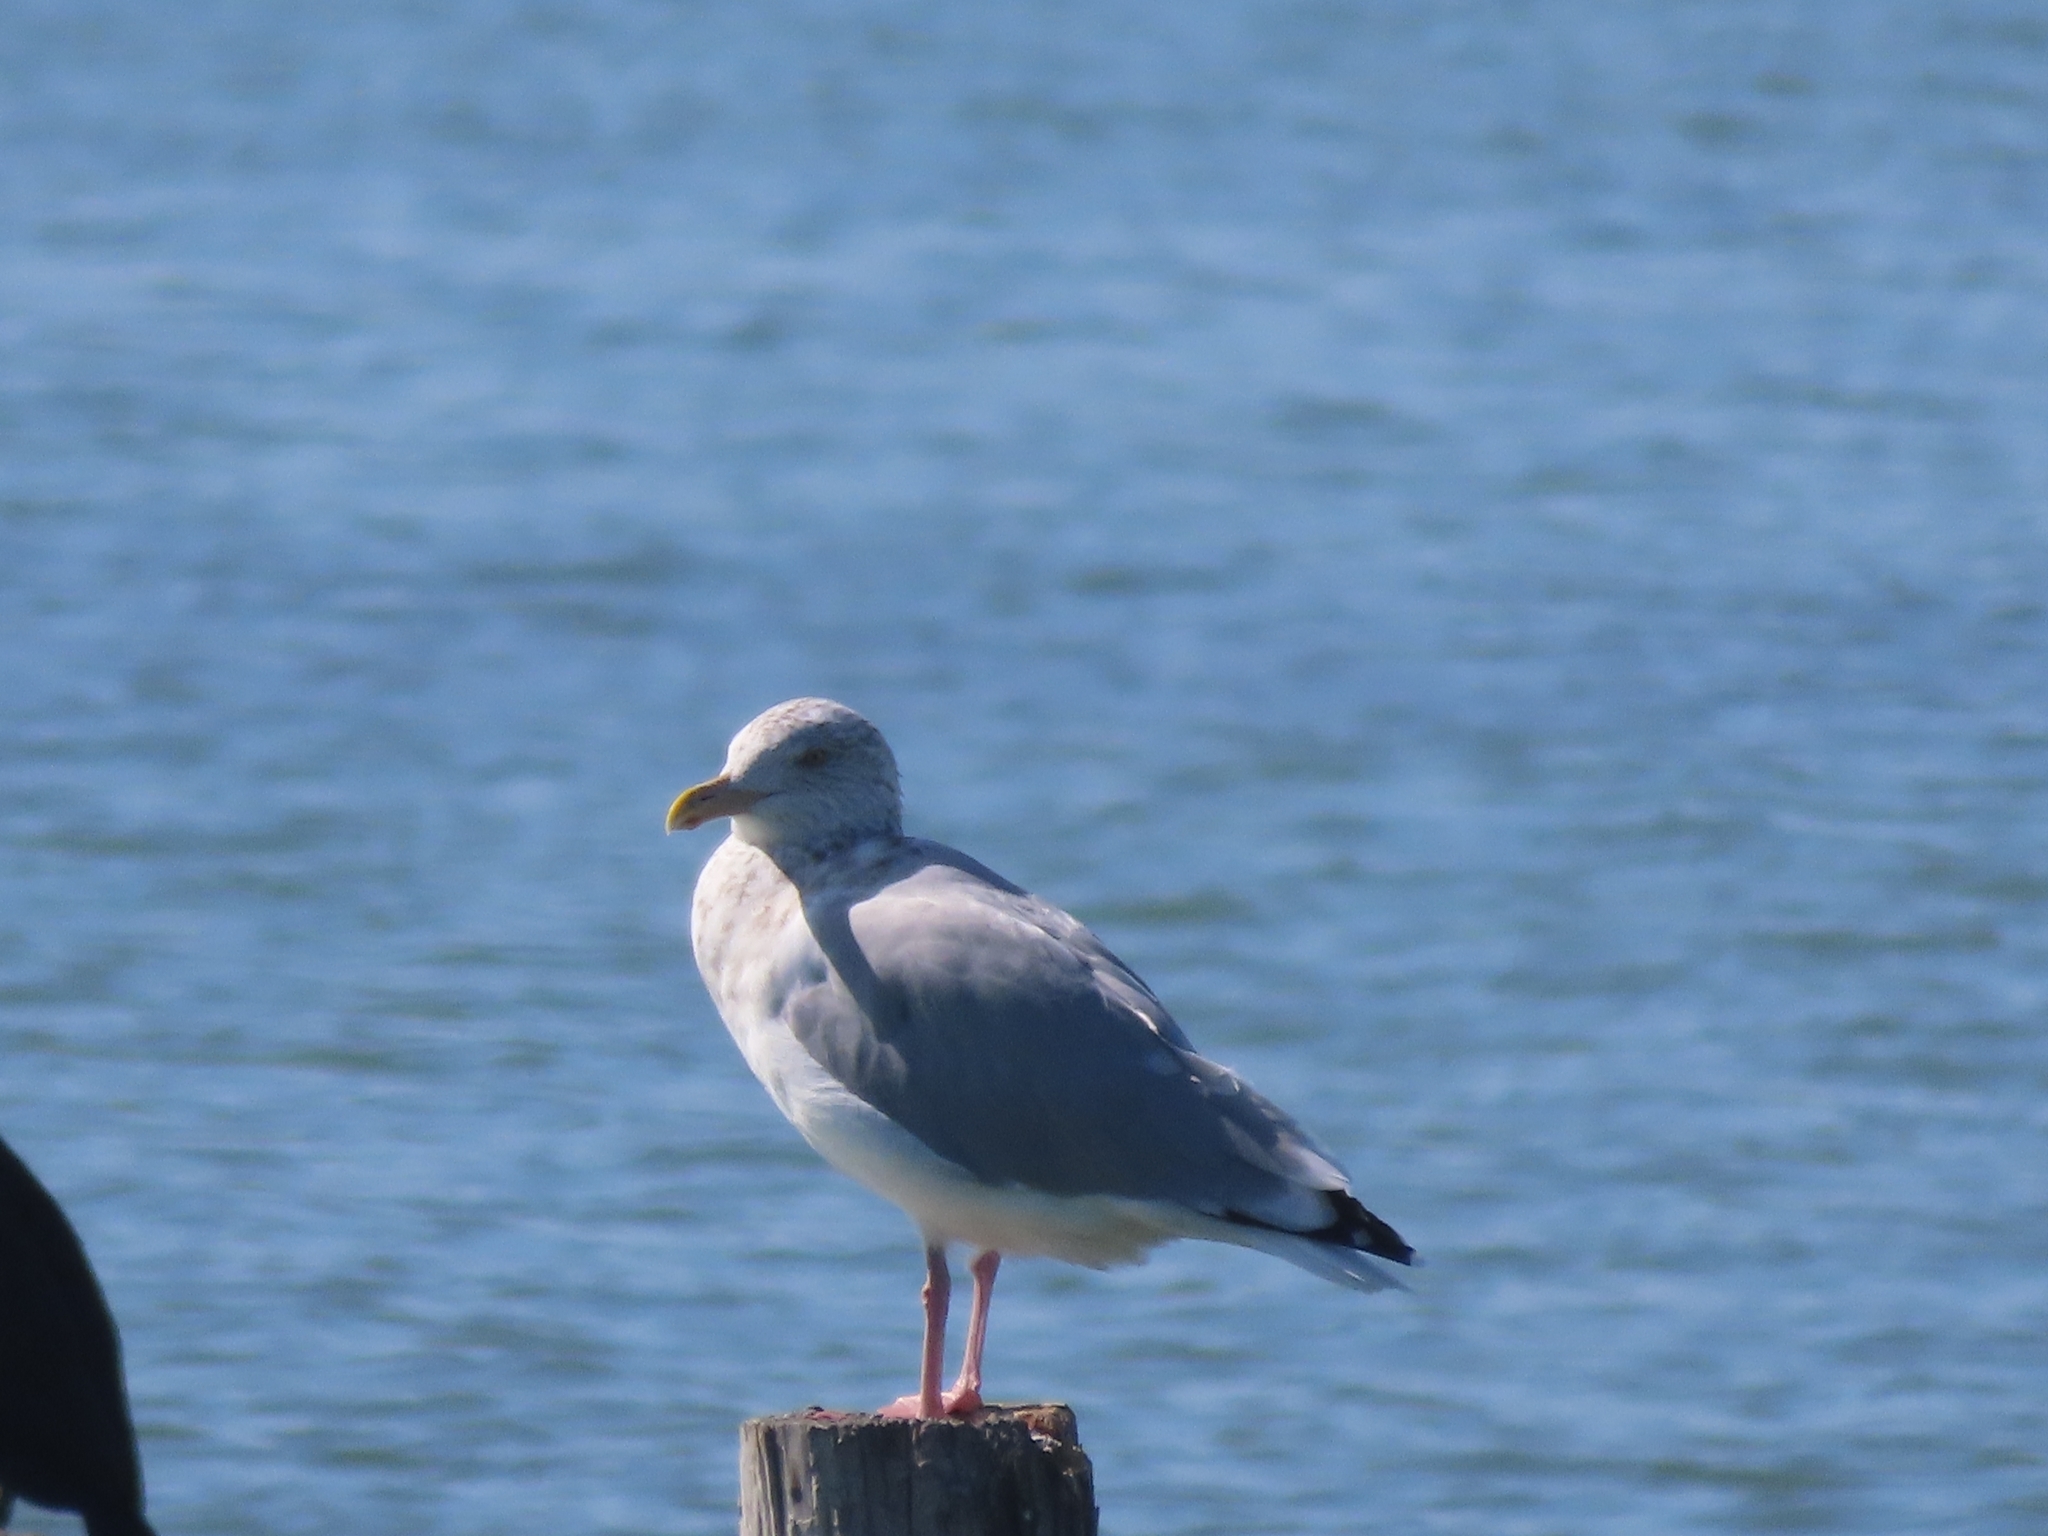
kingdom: Animalia
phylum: Chordata
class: Aves
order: Charadriiformes
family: Laridae
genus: Larus
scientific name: Larus argentatus
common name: Herring gull
